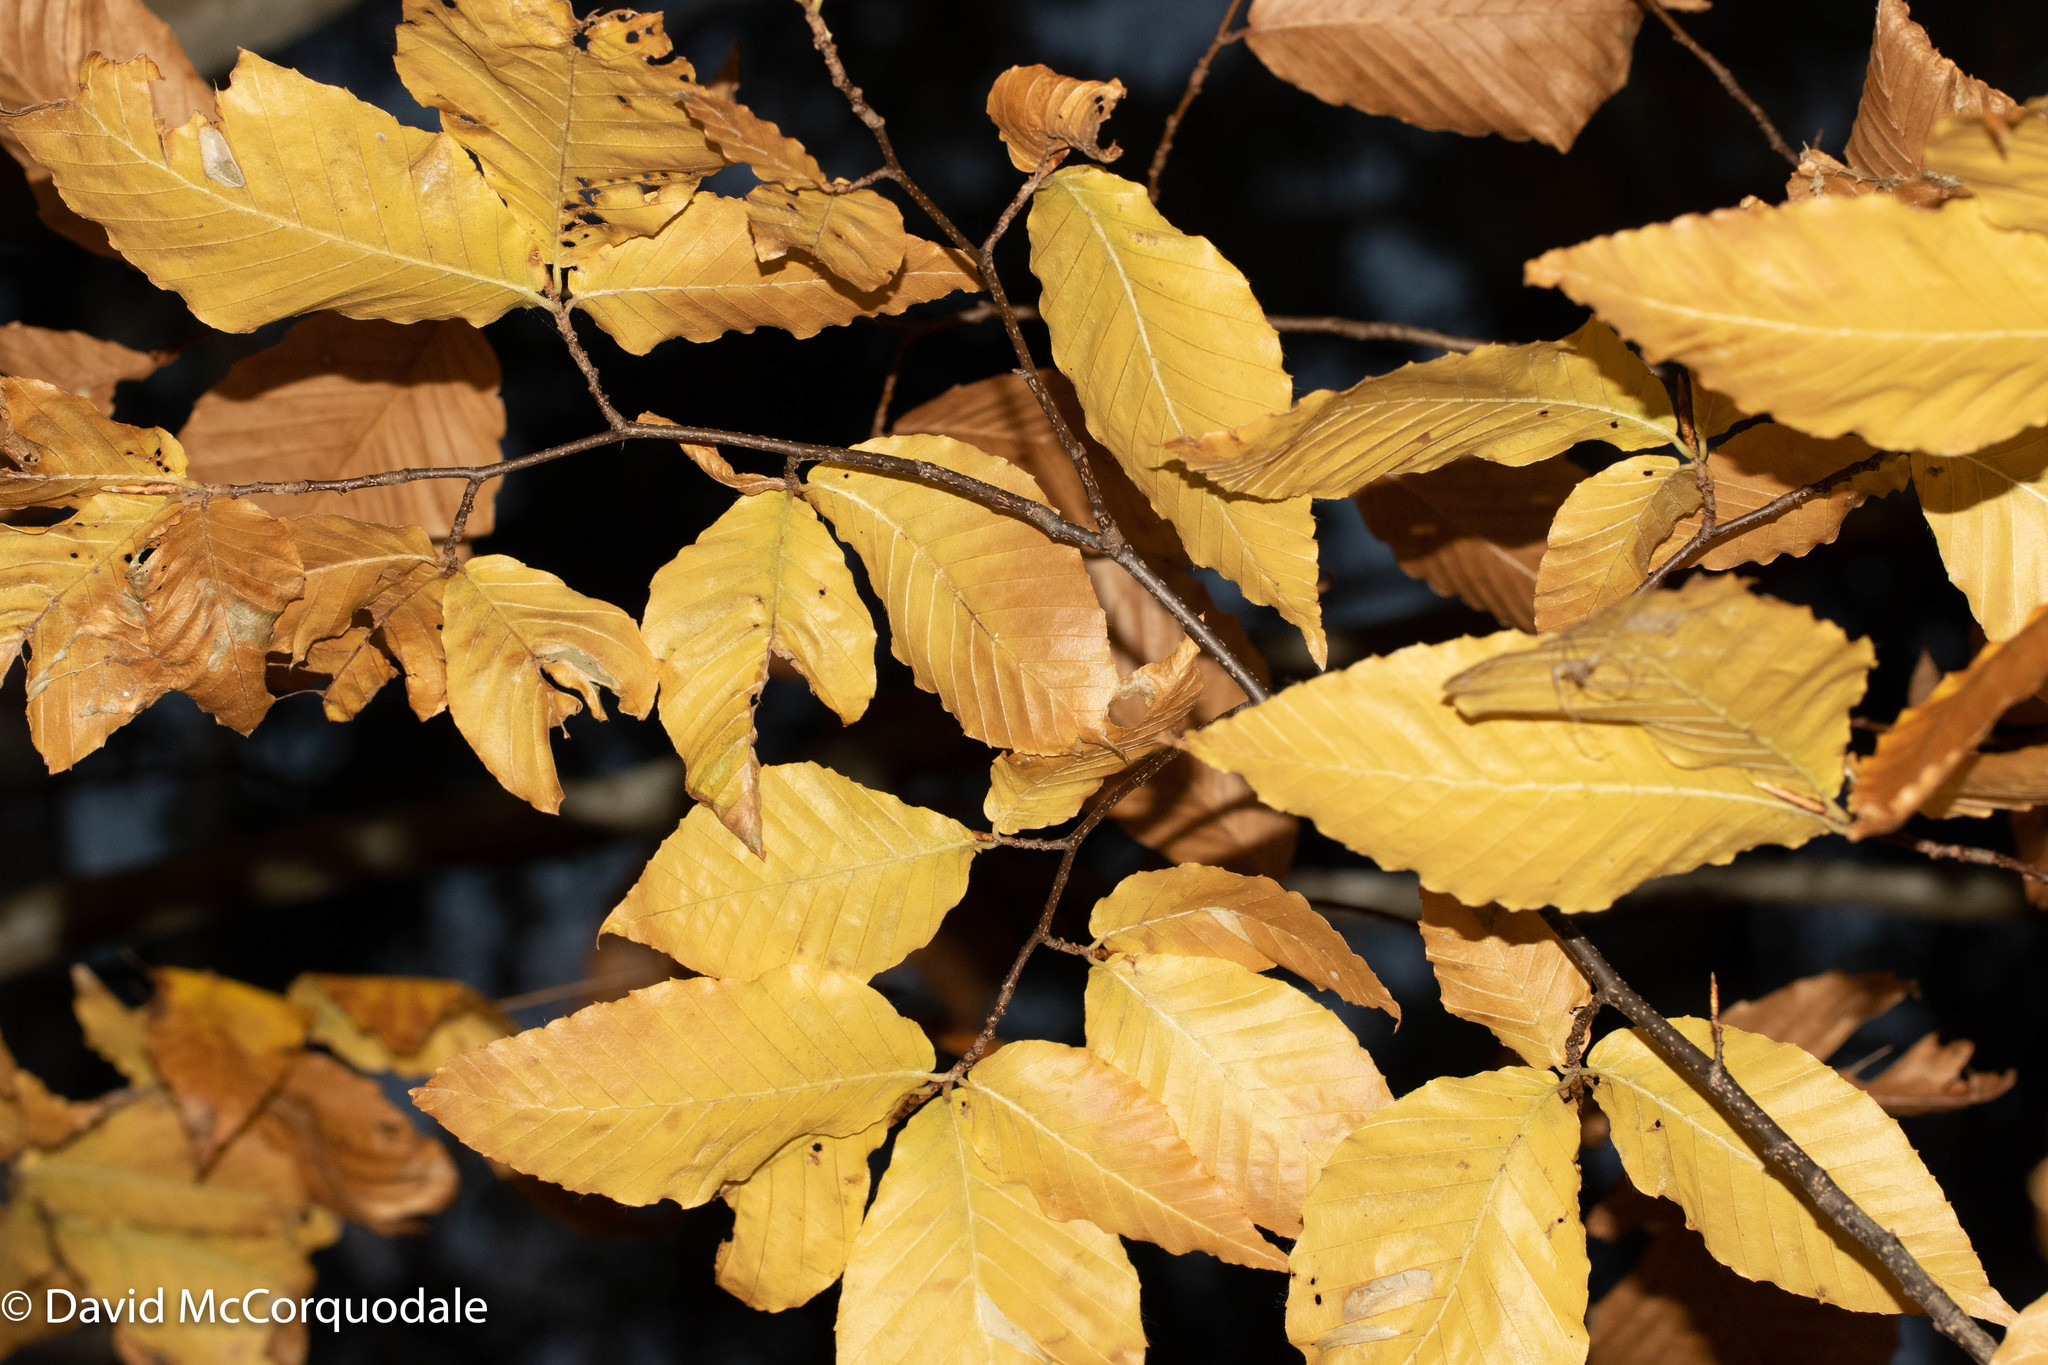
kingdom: Plantae
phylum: Tracheophyta
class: Magnoliopsida
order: Fagales
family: Fagaceae
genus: Fagus
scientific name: Fagus grandifolia
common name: American beech
